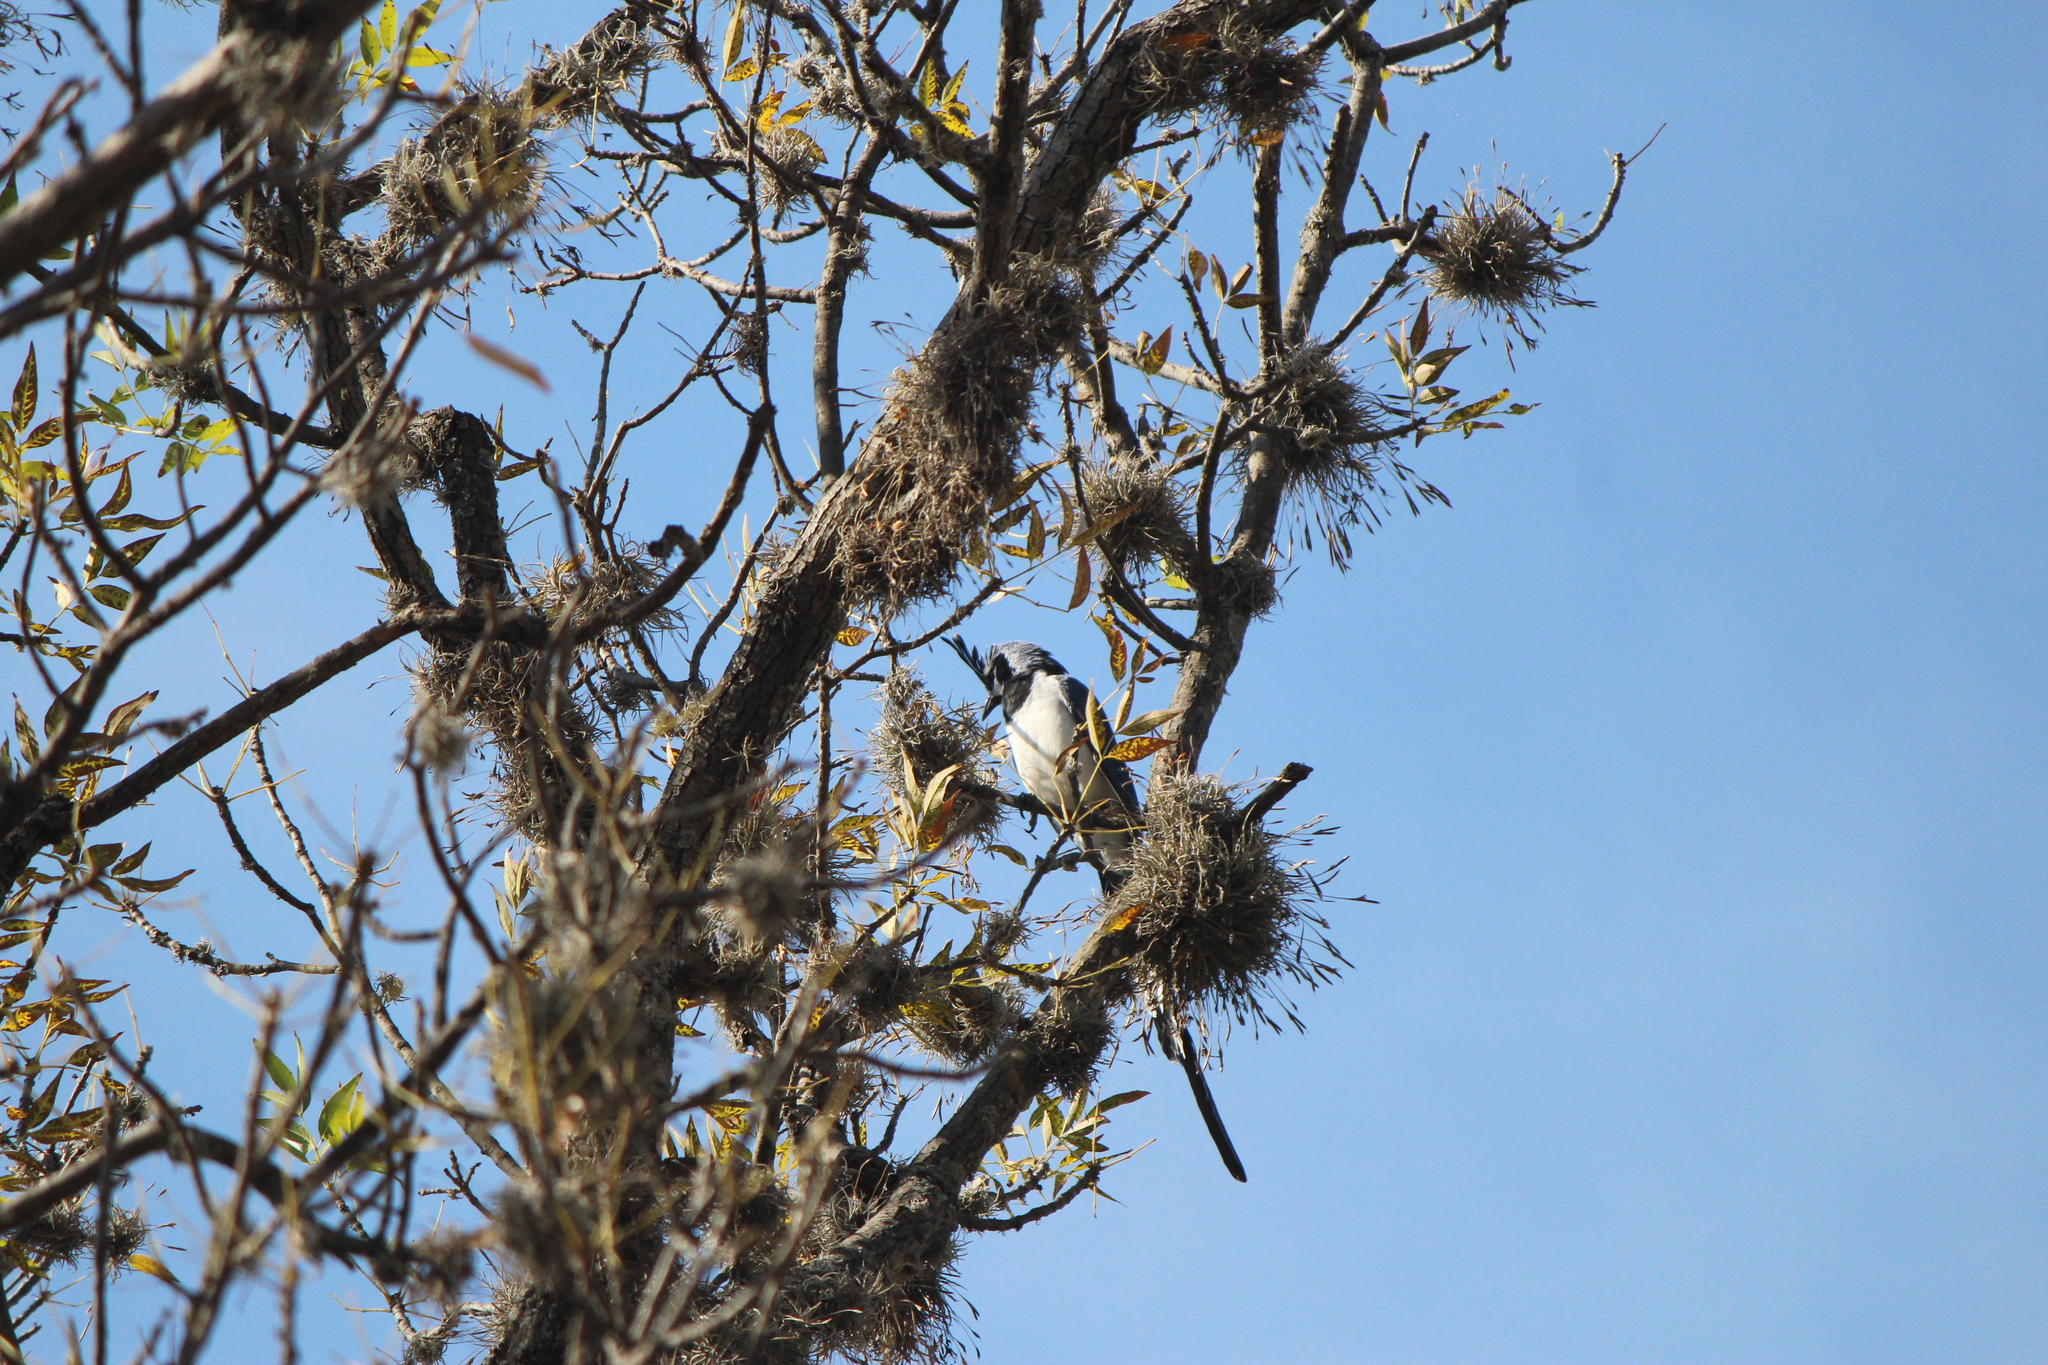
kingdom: Animalia
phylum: Chordata
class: Aves
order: Passeriformes
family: Corvidae
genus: Calocitta
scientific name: Calocitta colliei
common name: Black-throated magpie-jay
